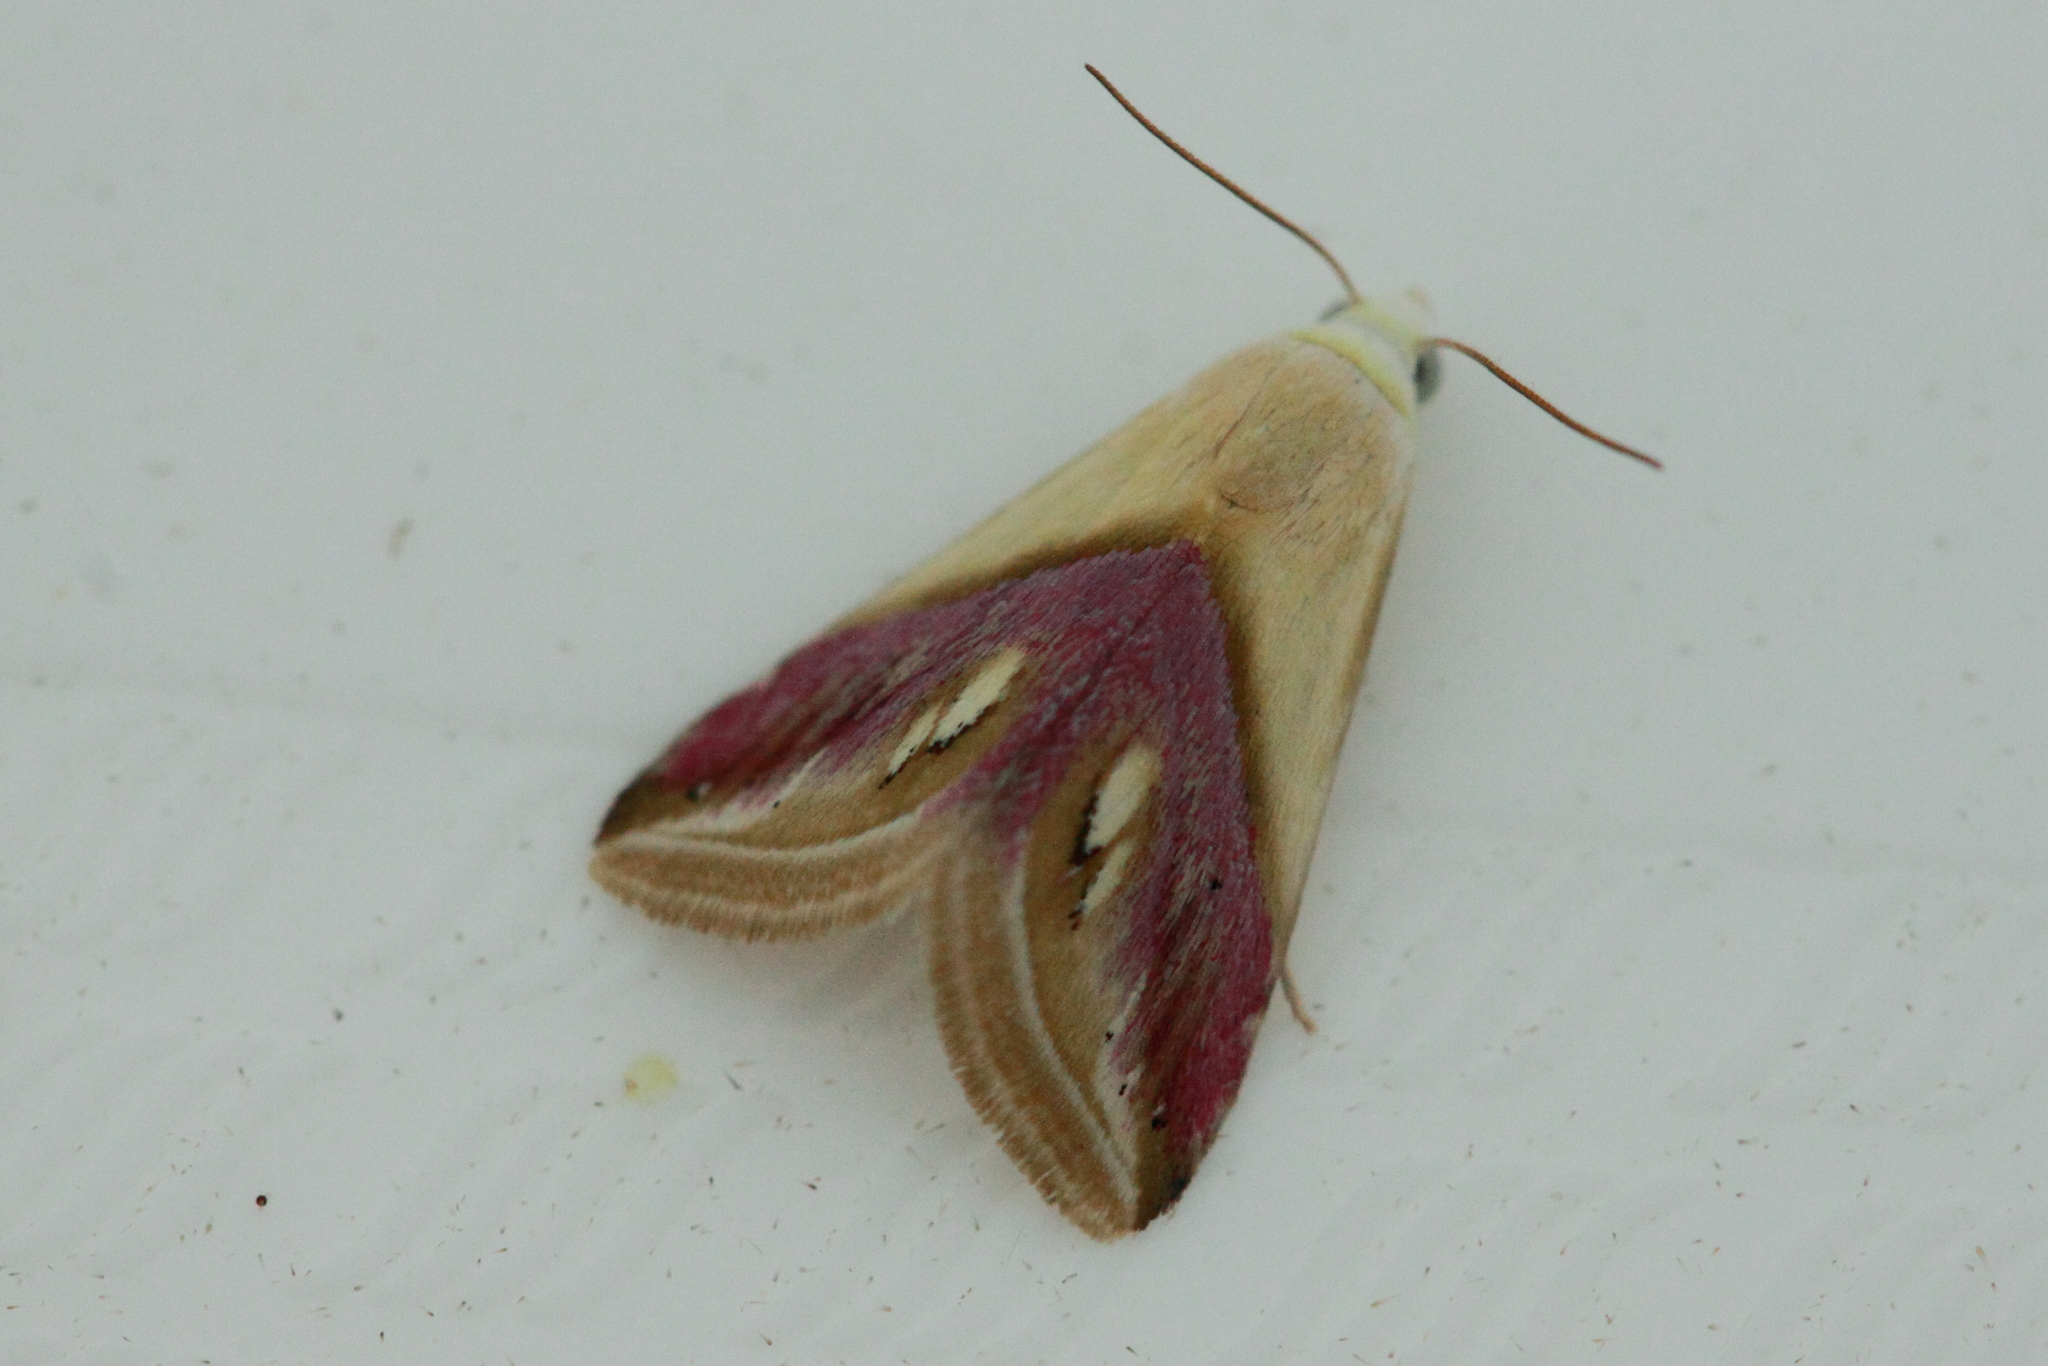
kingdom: Animalia
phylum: Arthropoda
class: Insecta
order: Lepidoptera
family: Noctuidae
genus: Eublemma
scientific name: Eublemma cochylioides
